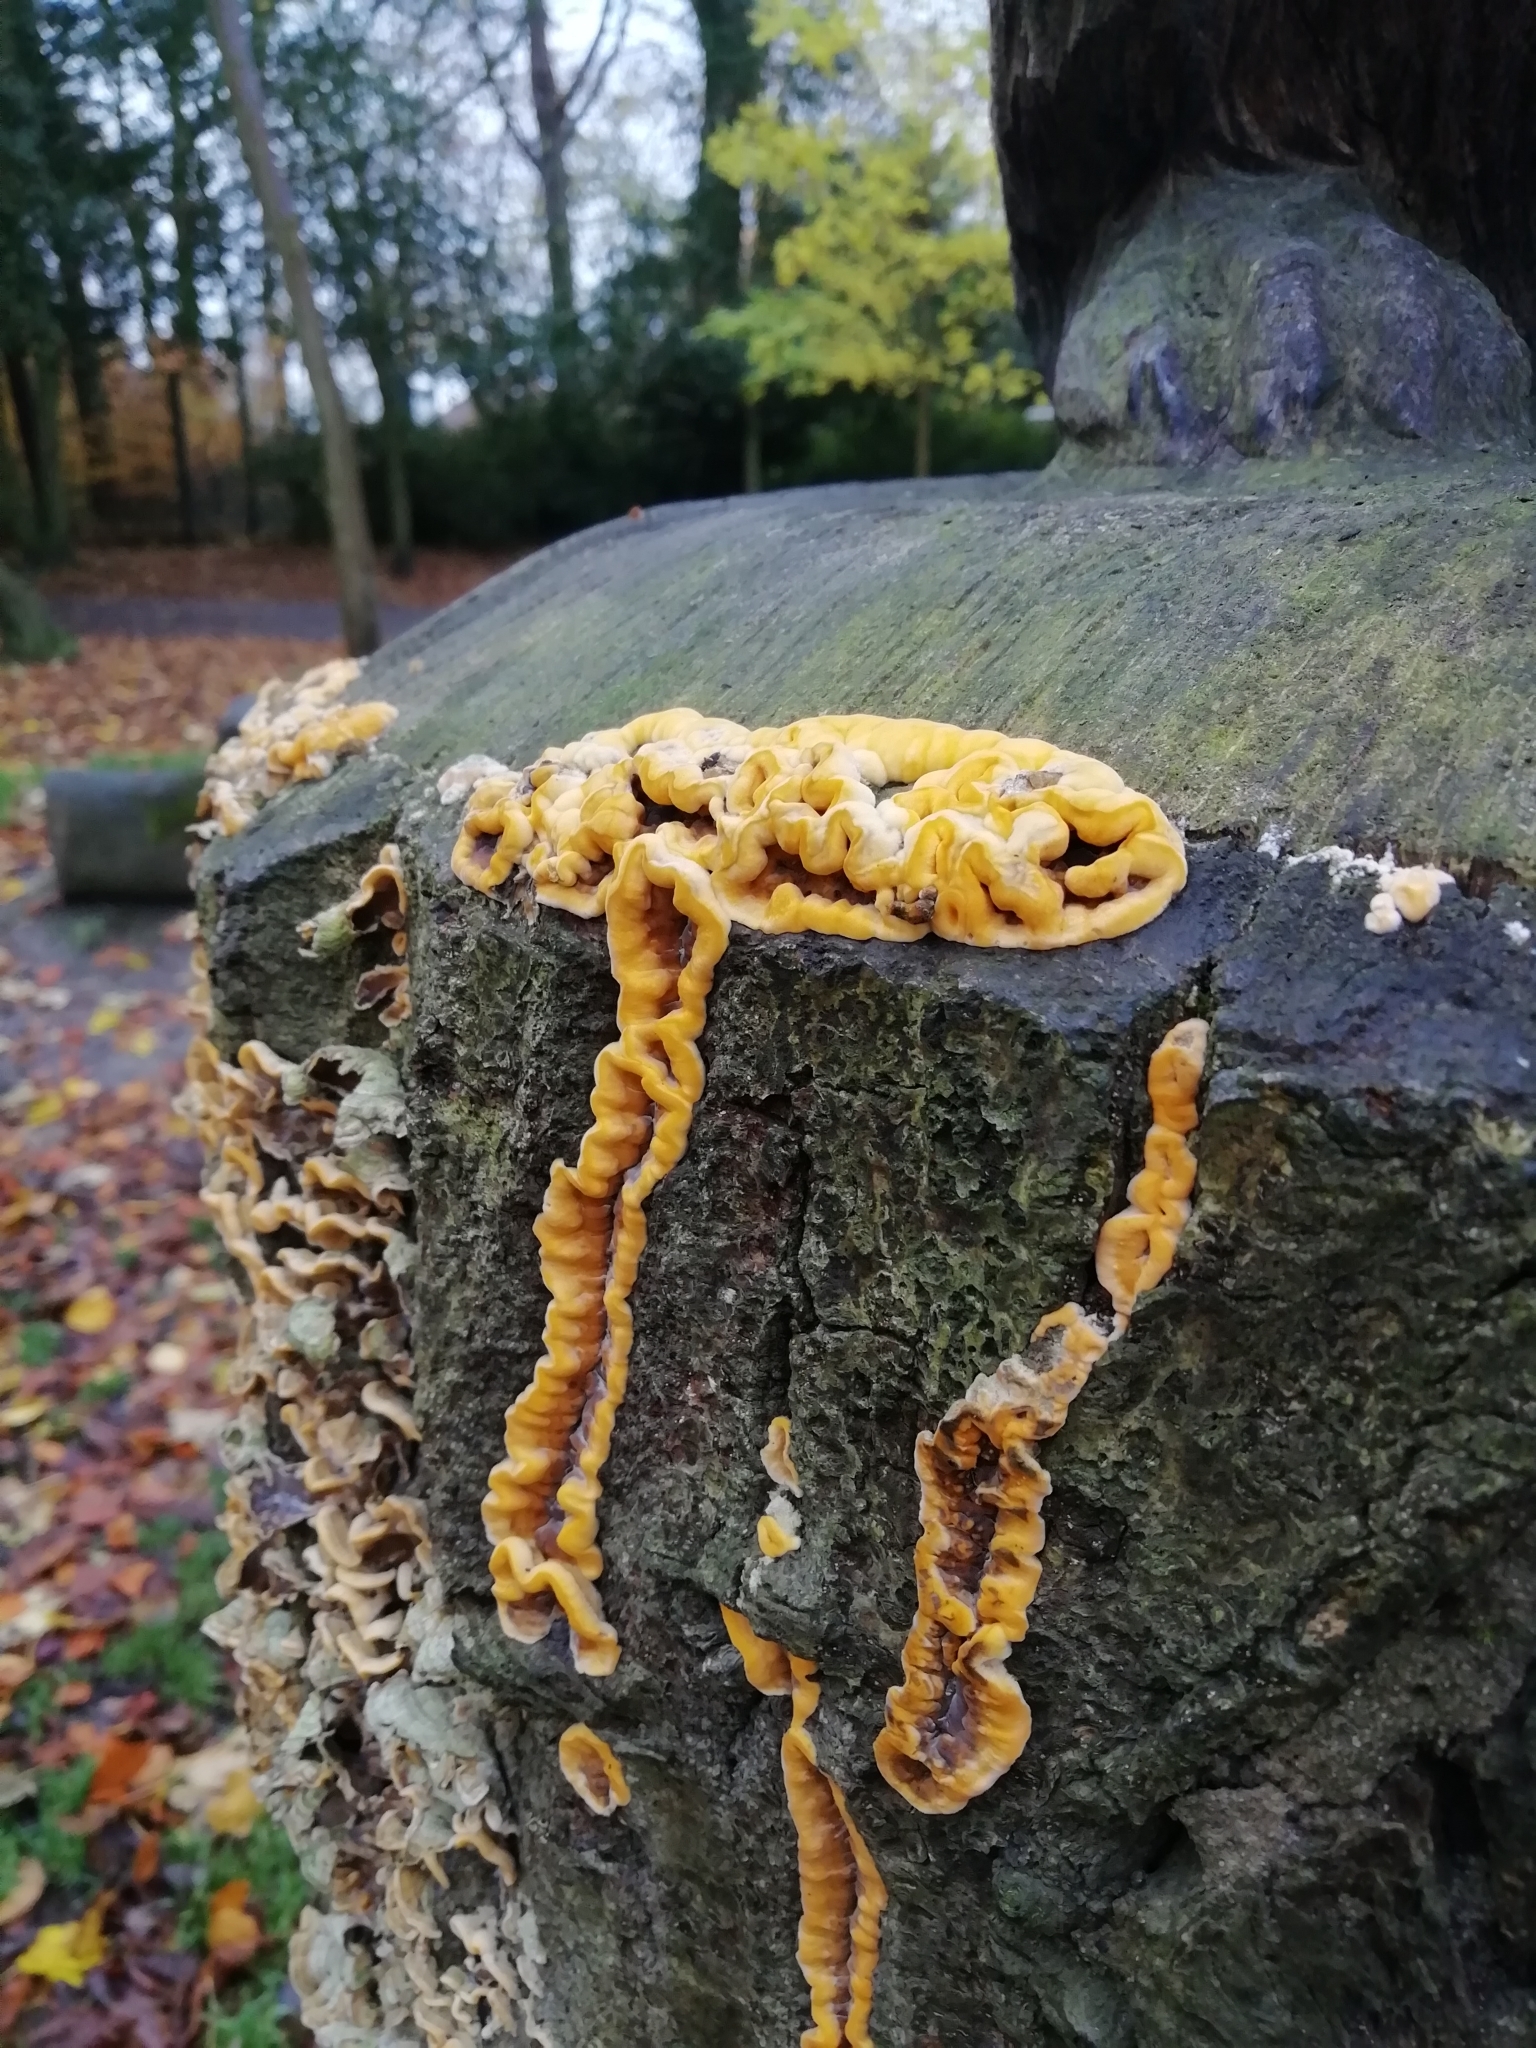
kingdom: Fungi
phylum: Basidiomycota
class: Agaricomycetes
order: Russulales
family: Stereaceae
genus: Stereum
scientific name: Stereum hirsutum
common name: Hairy curtain crust
